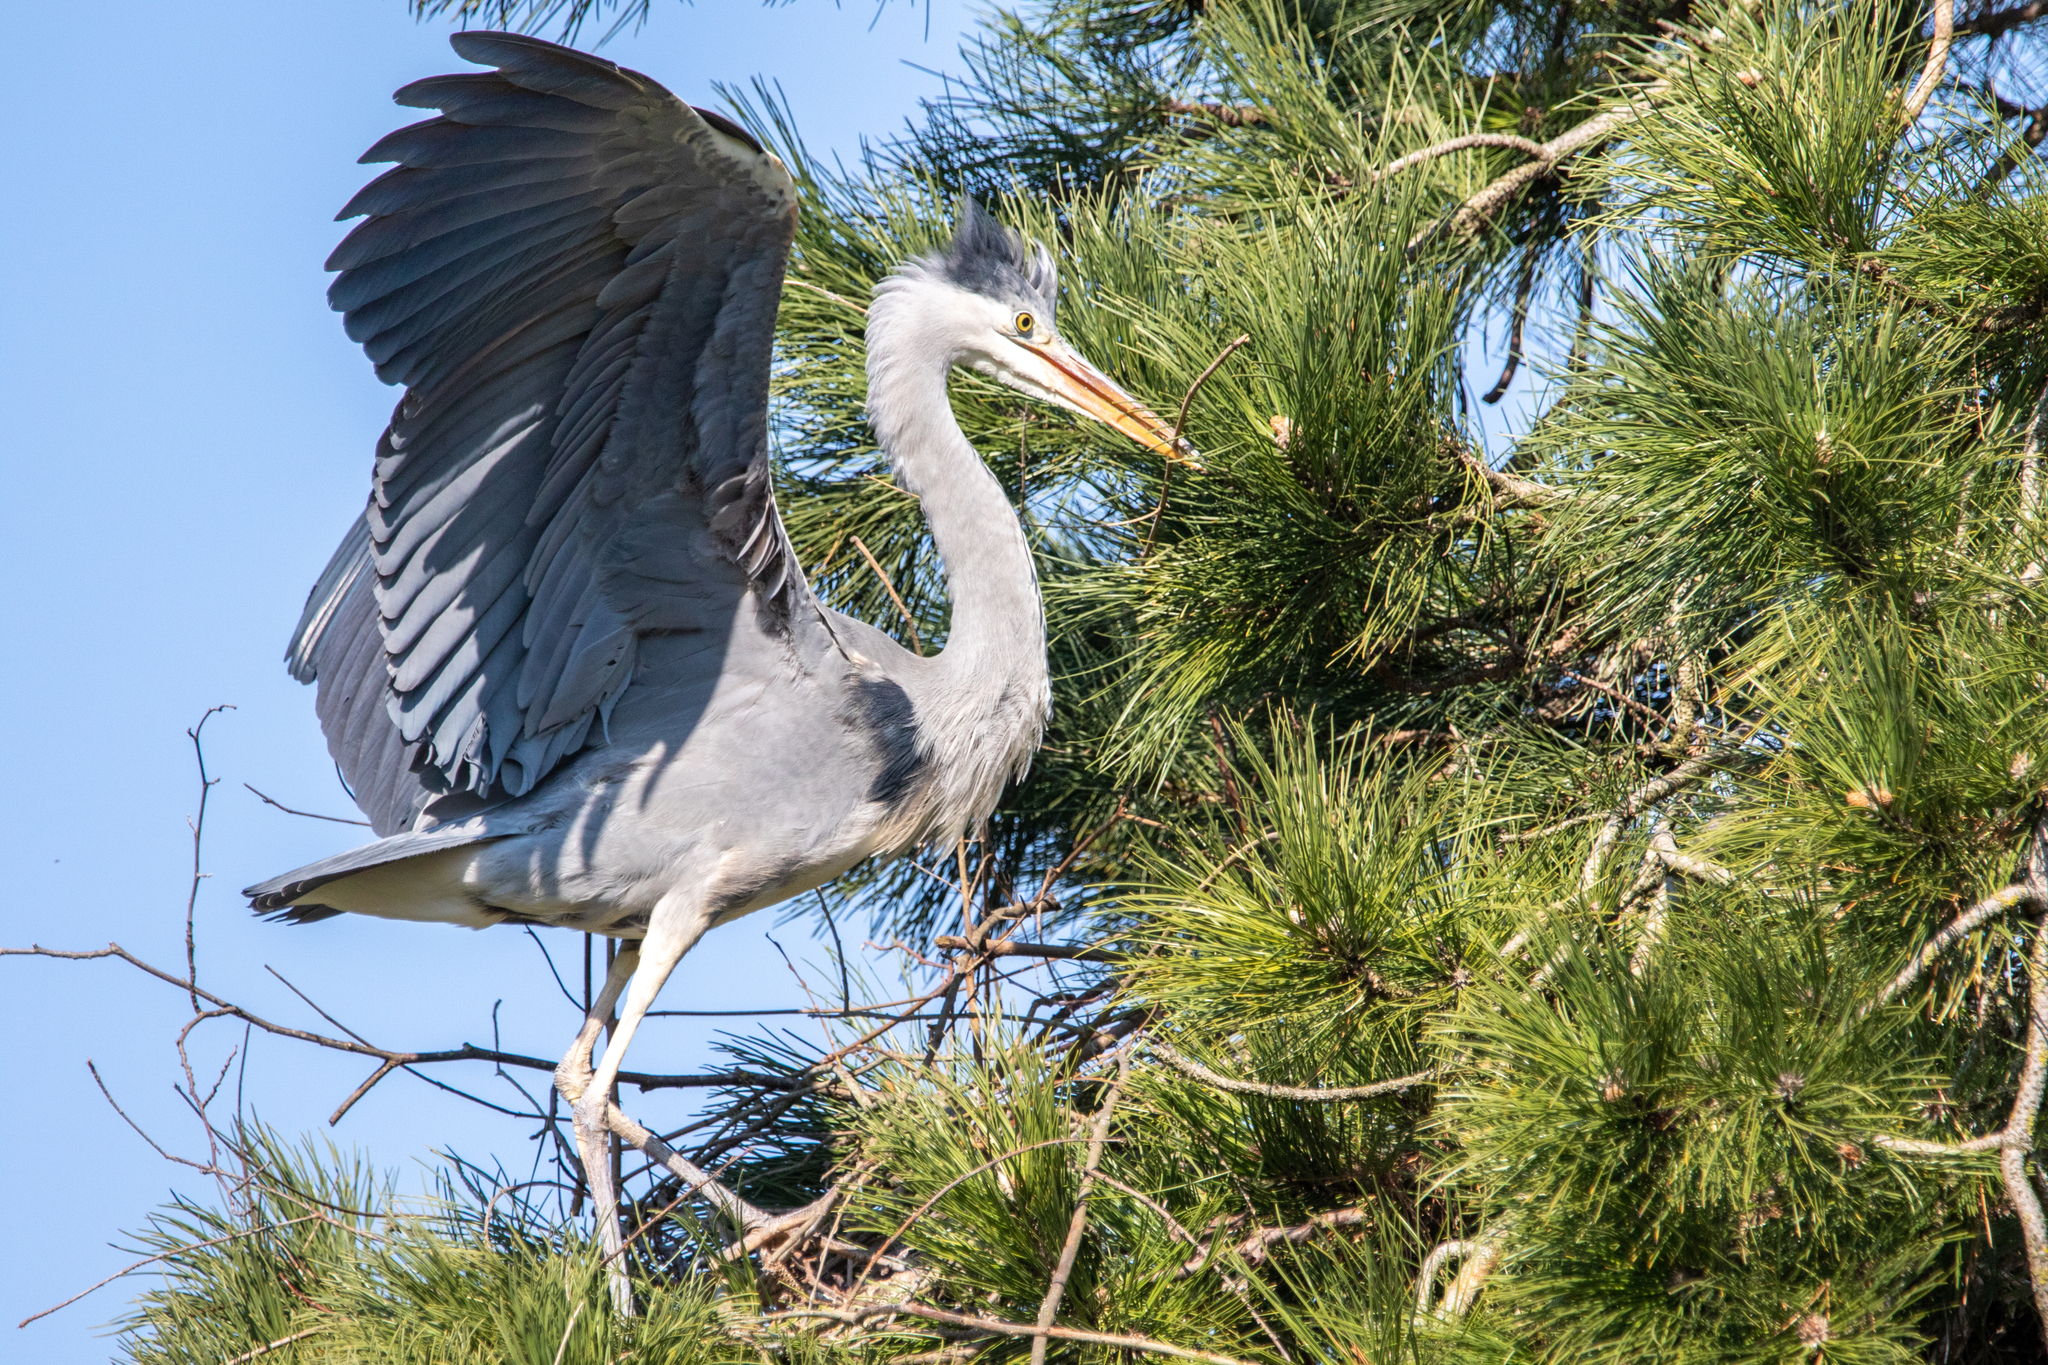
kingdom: Animalia
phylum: Chordata
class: Aves
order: Pelecaniformes
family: Ardeidae
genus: Ardea
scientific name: Ardea cinerea
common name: Grey heron
